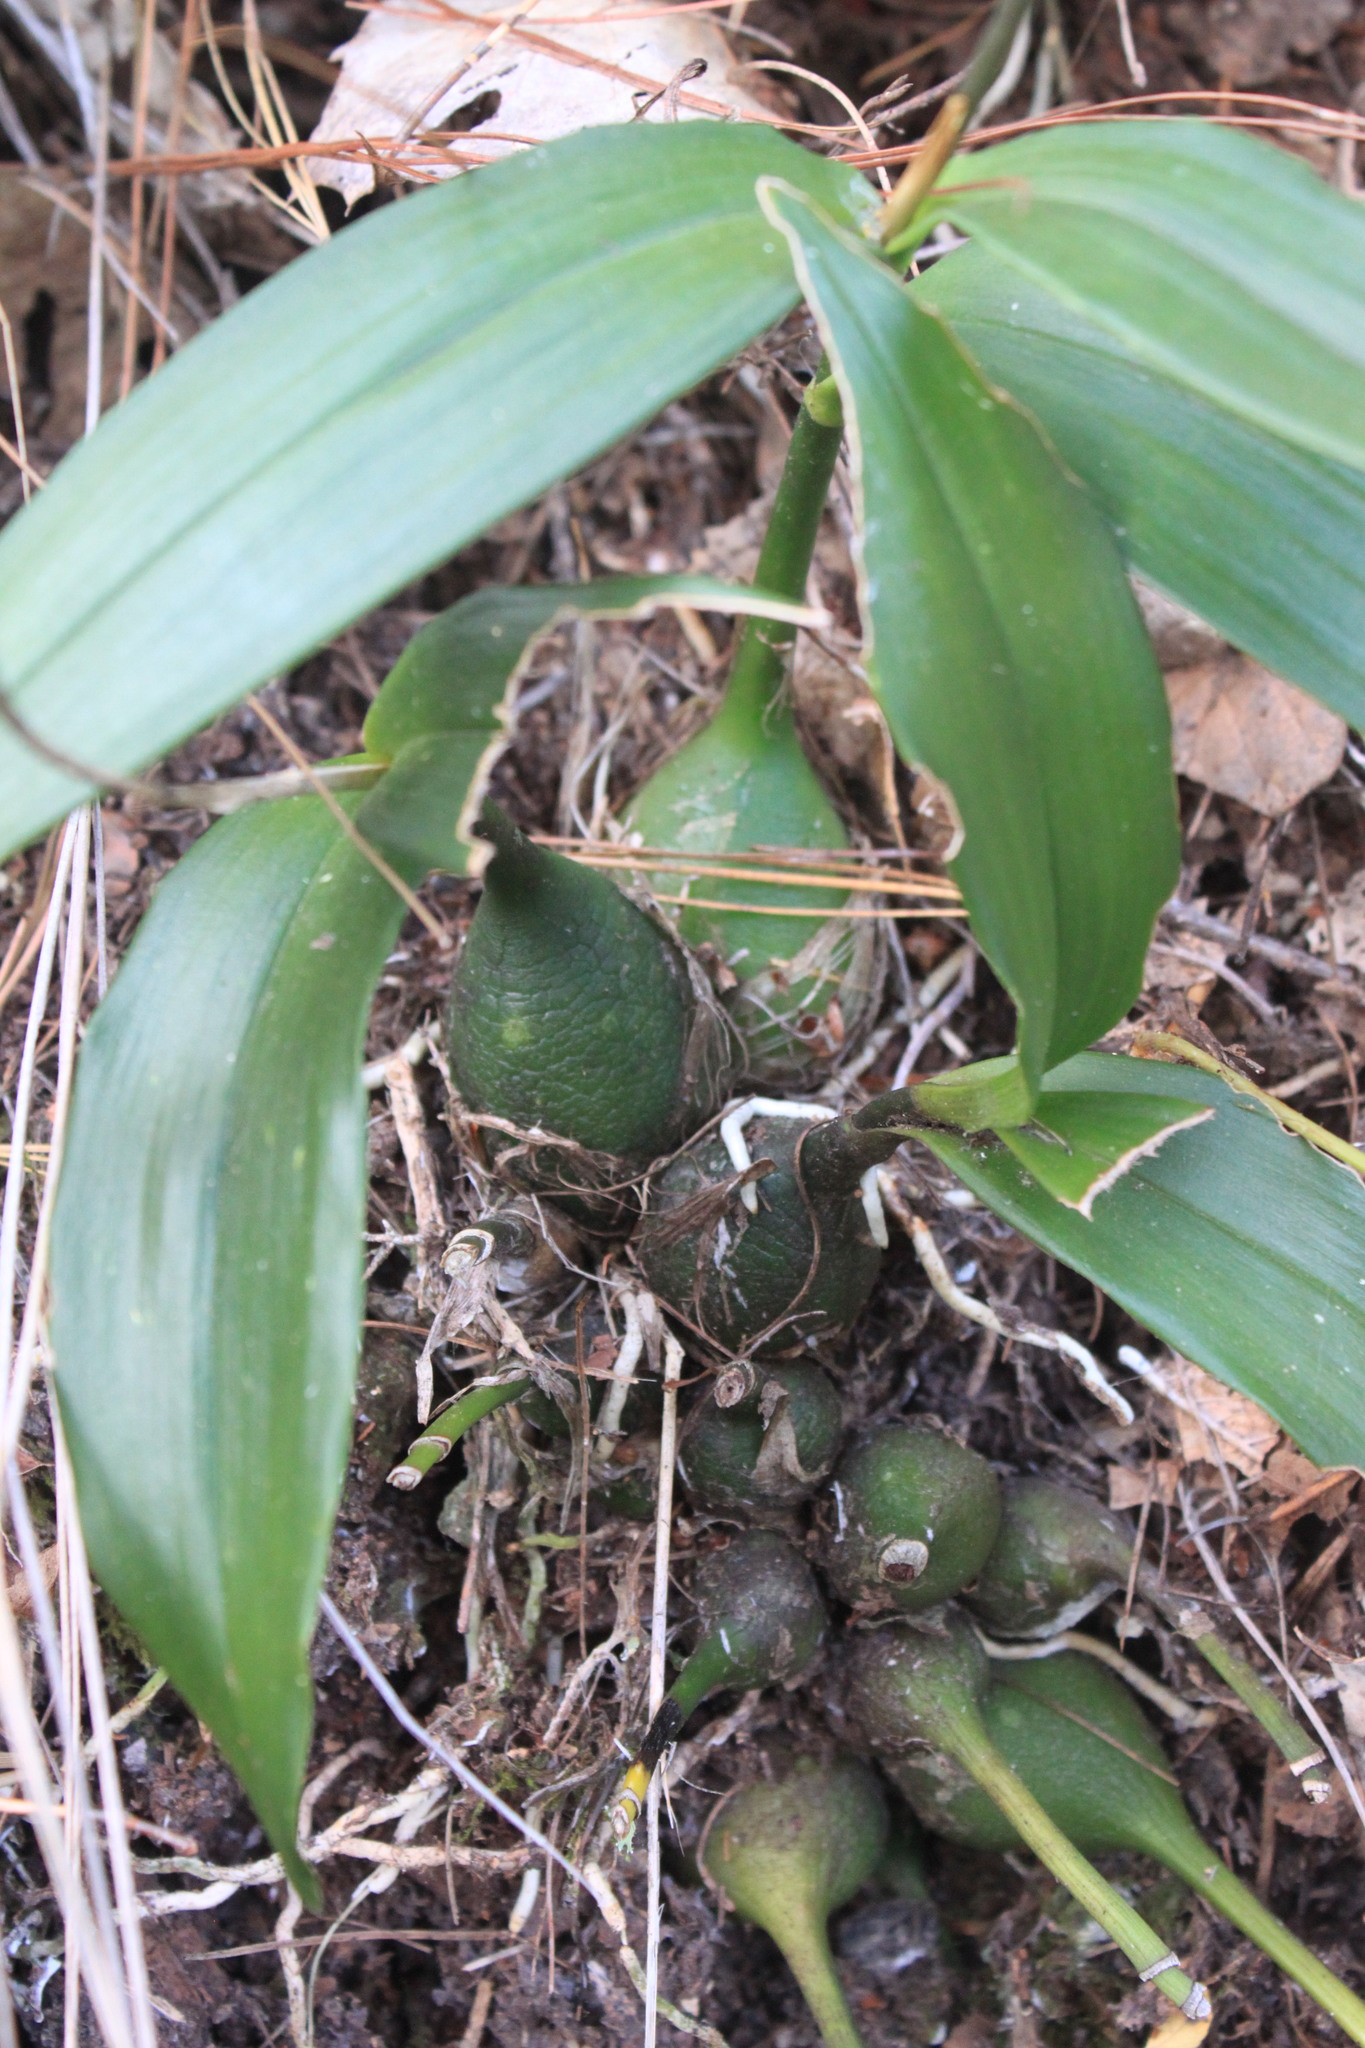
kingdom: Plantae
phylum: Tracheophyta
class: Liliopsida
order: Asparagales
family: Orchidaceae
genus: Prosthechea
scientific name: Prosthechea varicosa
